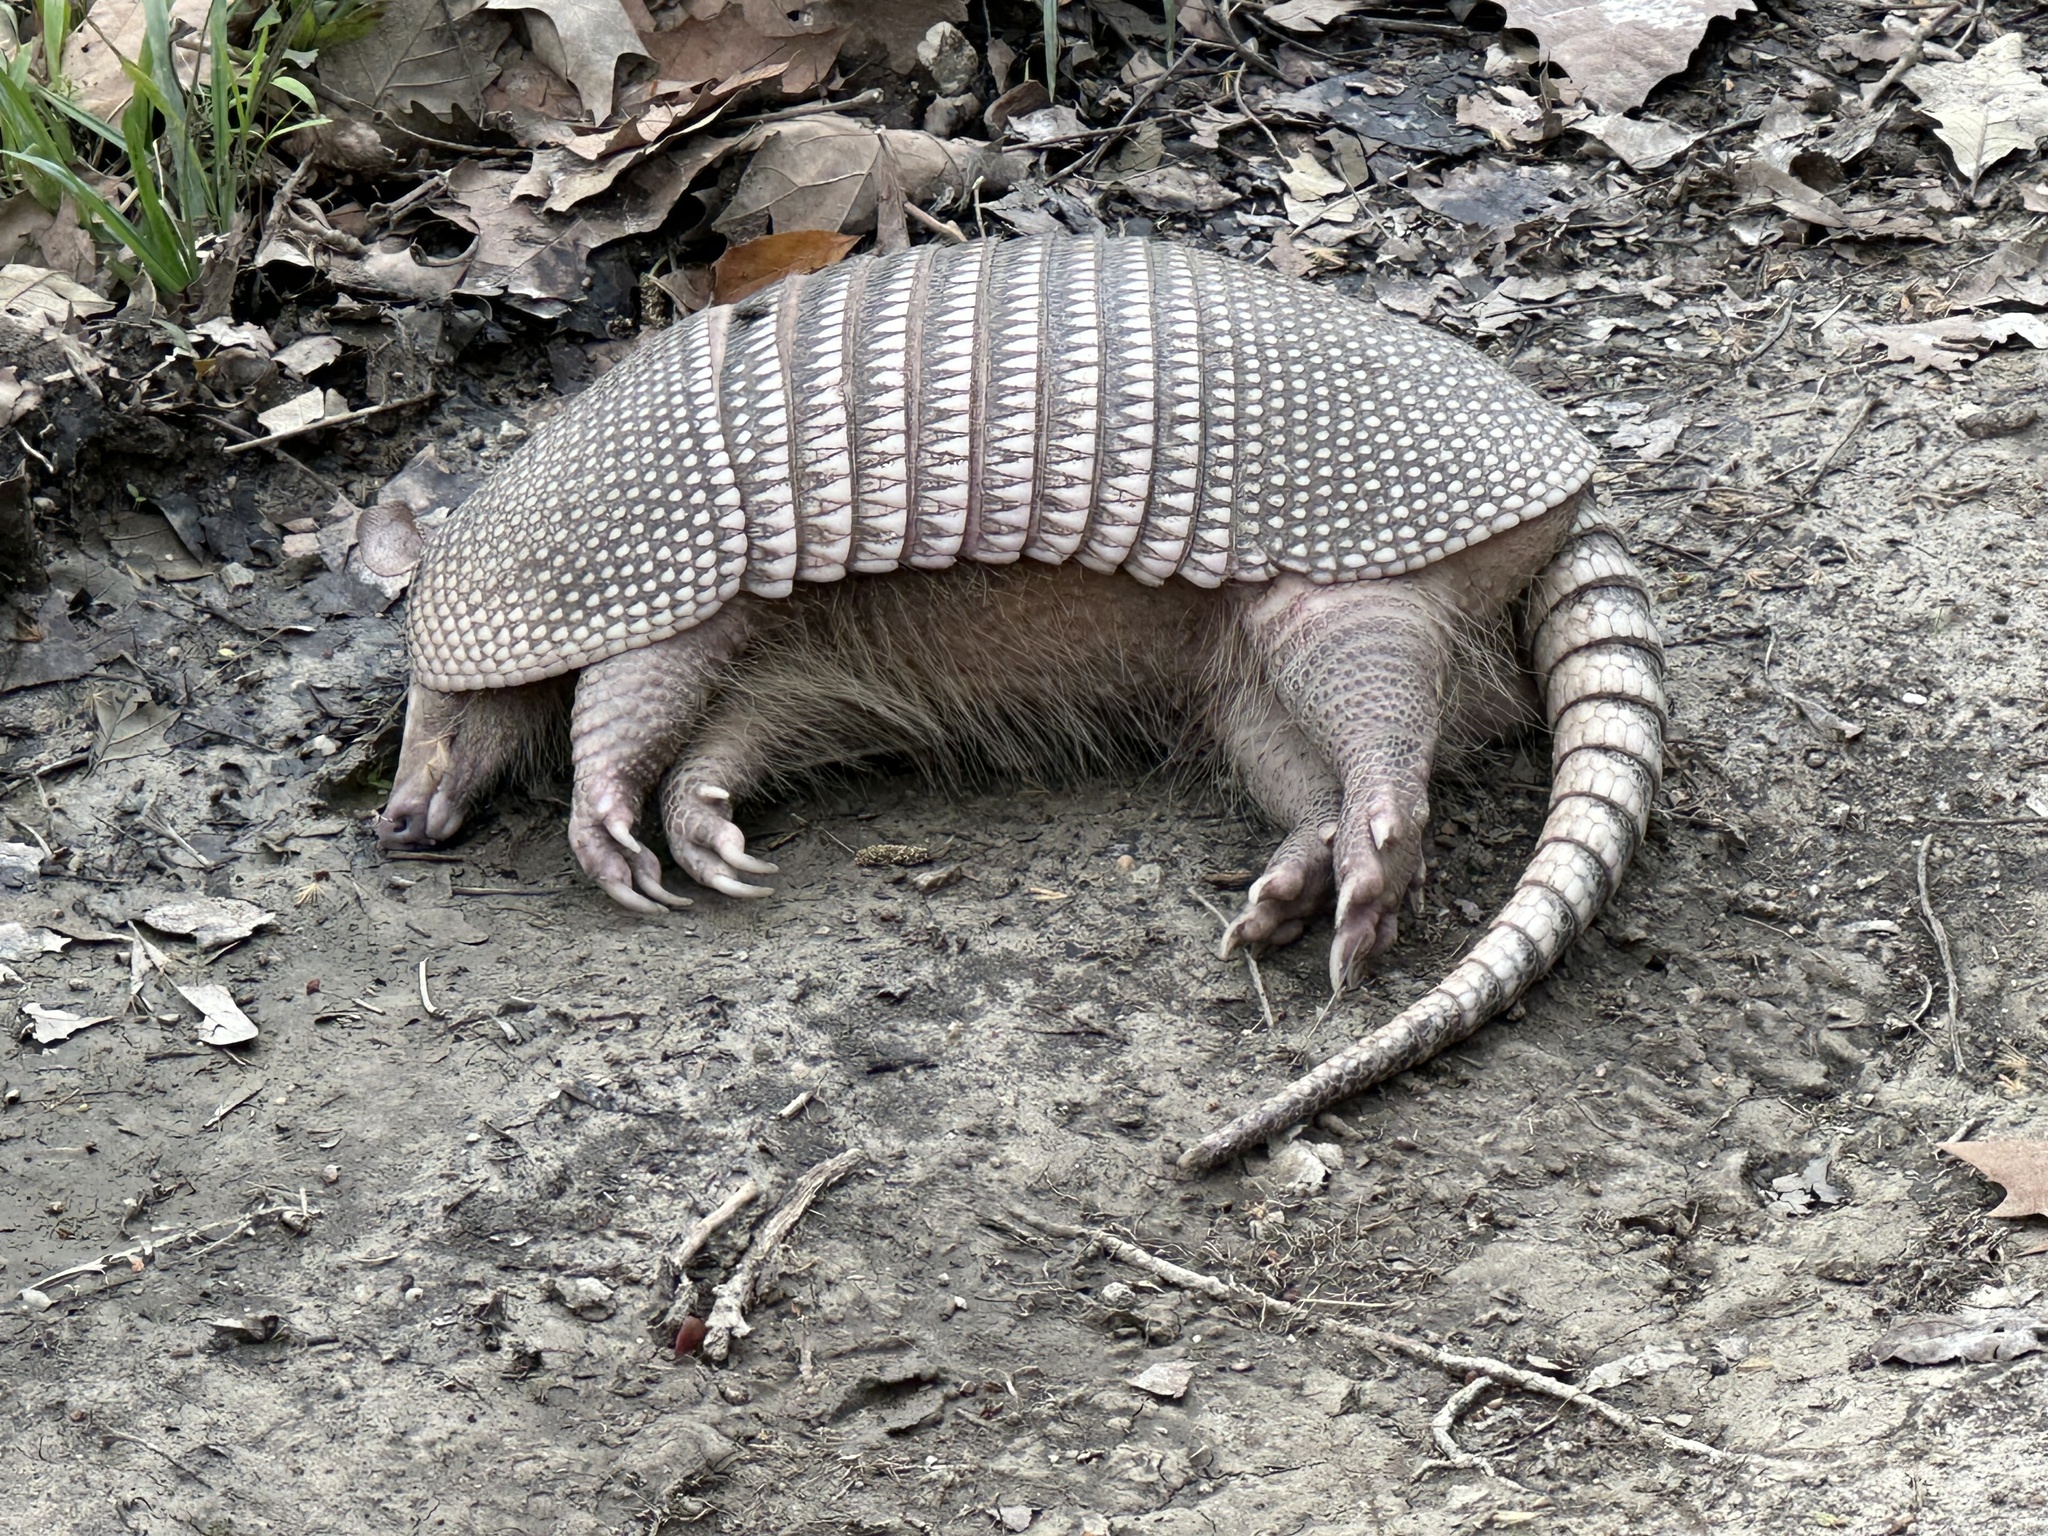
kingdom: Animalia
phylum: Chordata
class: Mammalia
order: Cingulata
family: Dasypodidae
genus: Dasypus
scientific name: Dasypus novemcinctus
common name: Nine-banded armadillo
